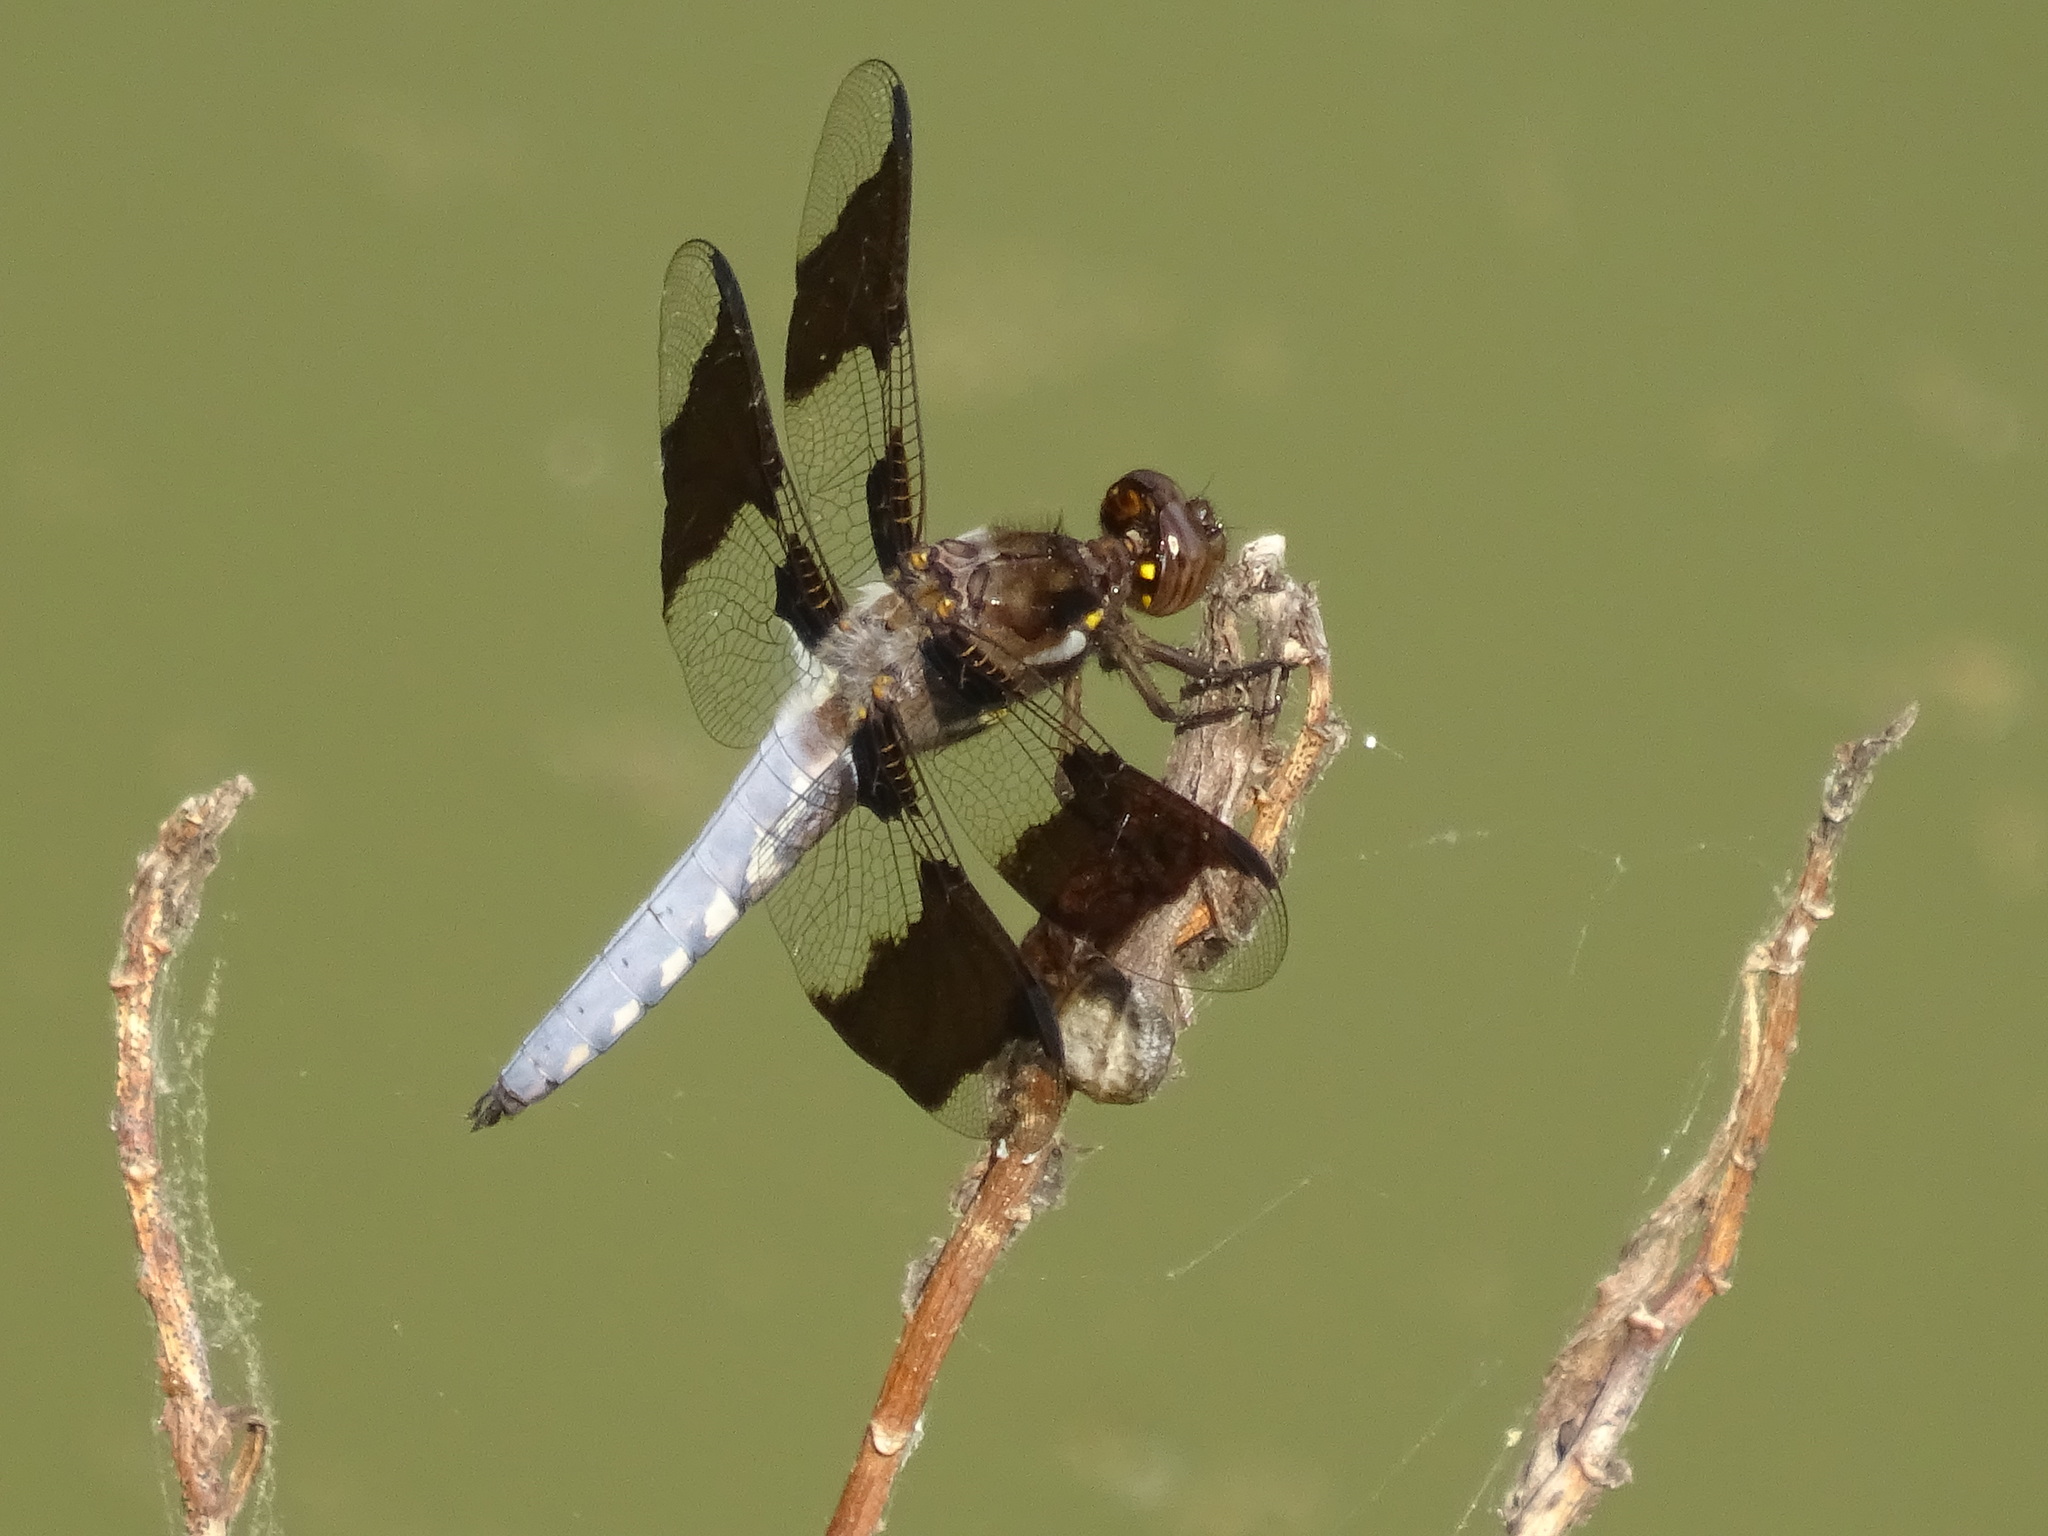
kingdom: Animalia
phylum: Arthropoda
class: Insecta
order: Odonata
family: Libellulidae
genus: Plathemis
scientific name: Plathemis lydia
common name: Common whitetail
